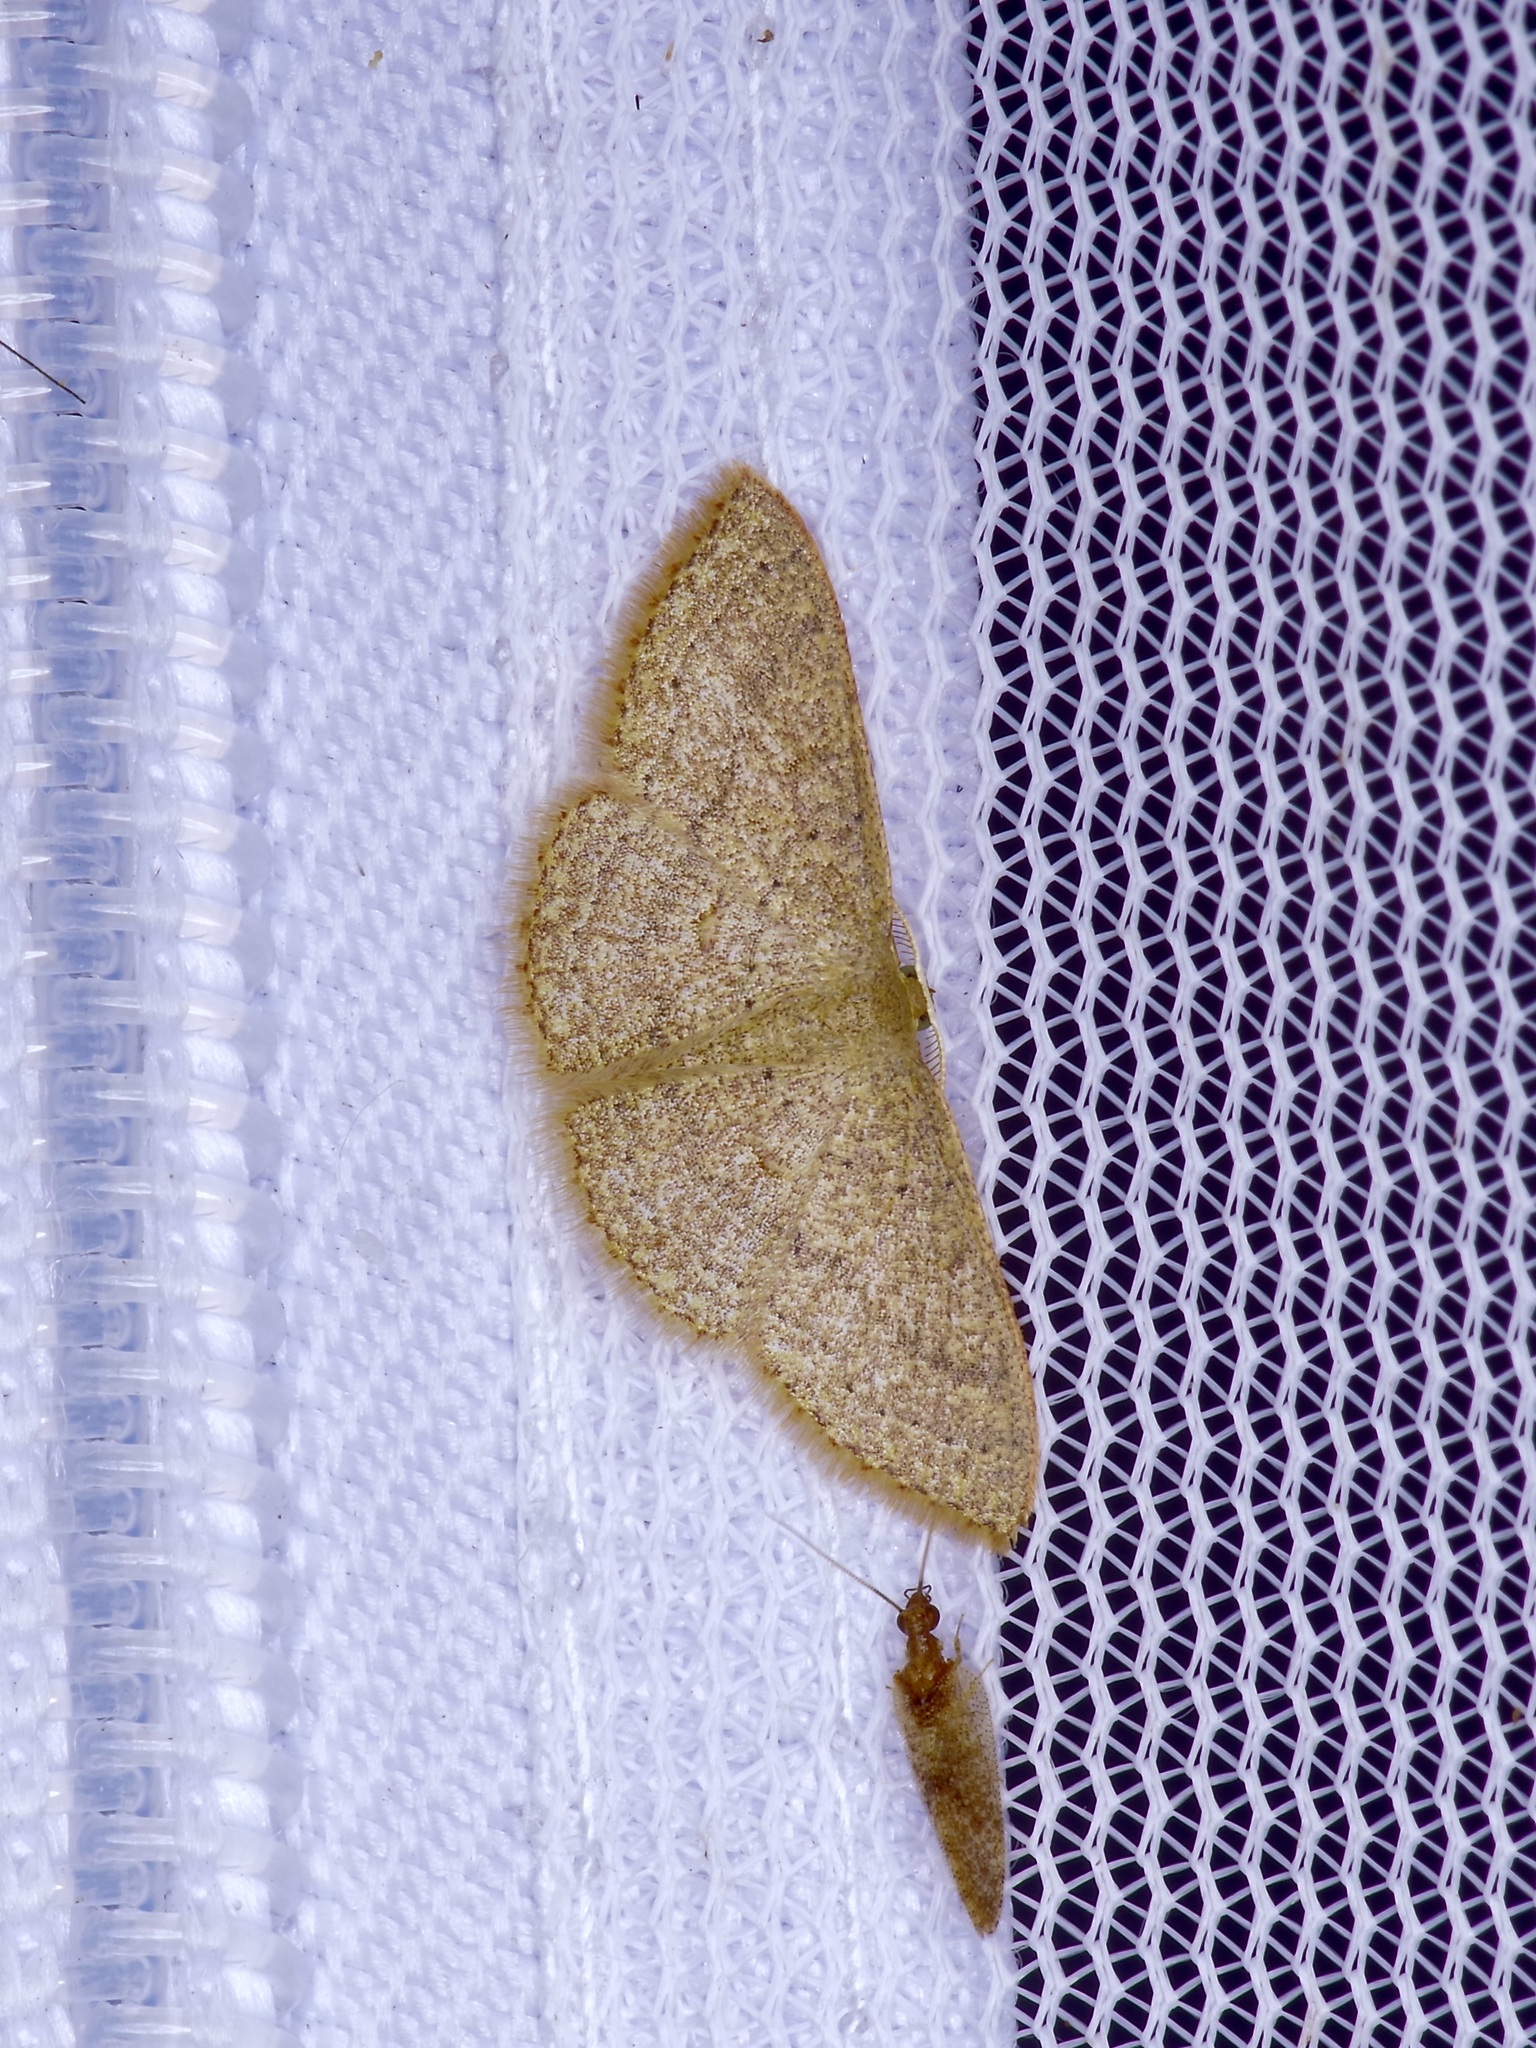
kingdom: Animalia
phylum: Arthropoda
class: Insecta
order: Lepidoptera
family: Geometridae
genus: Pleuroprucha
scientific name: Pleuroprucha insulsaria
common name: Common tan wave
